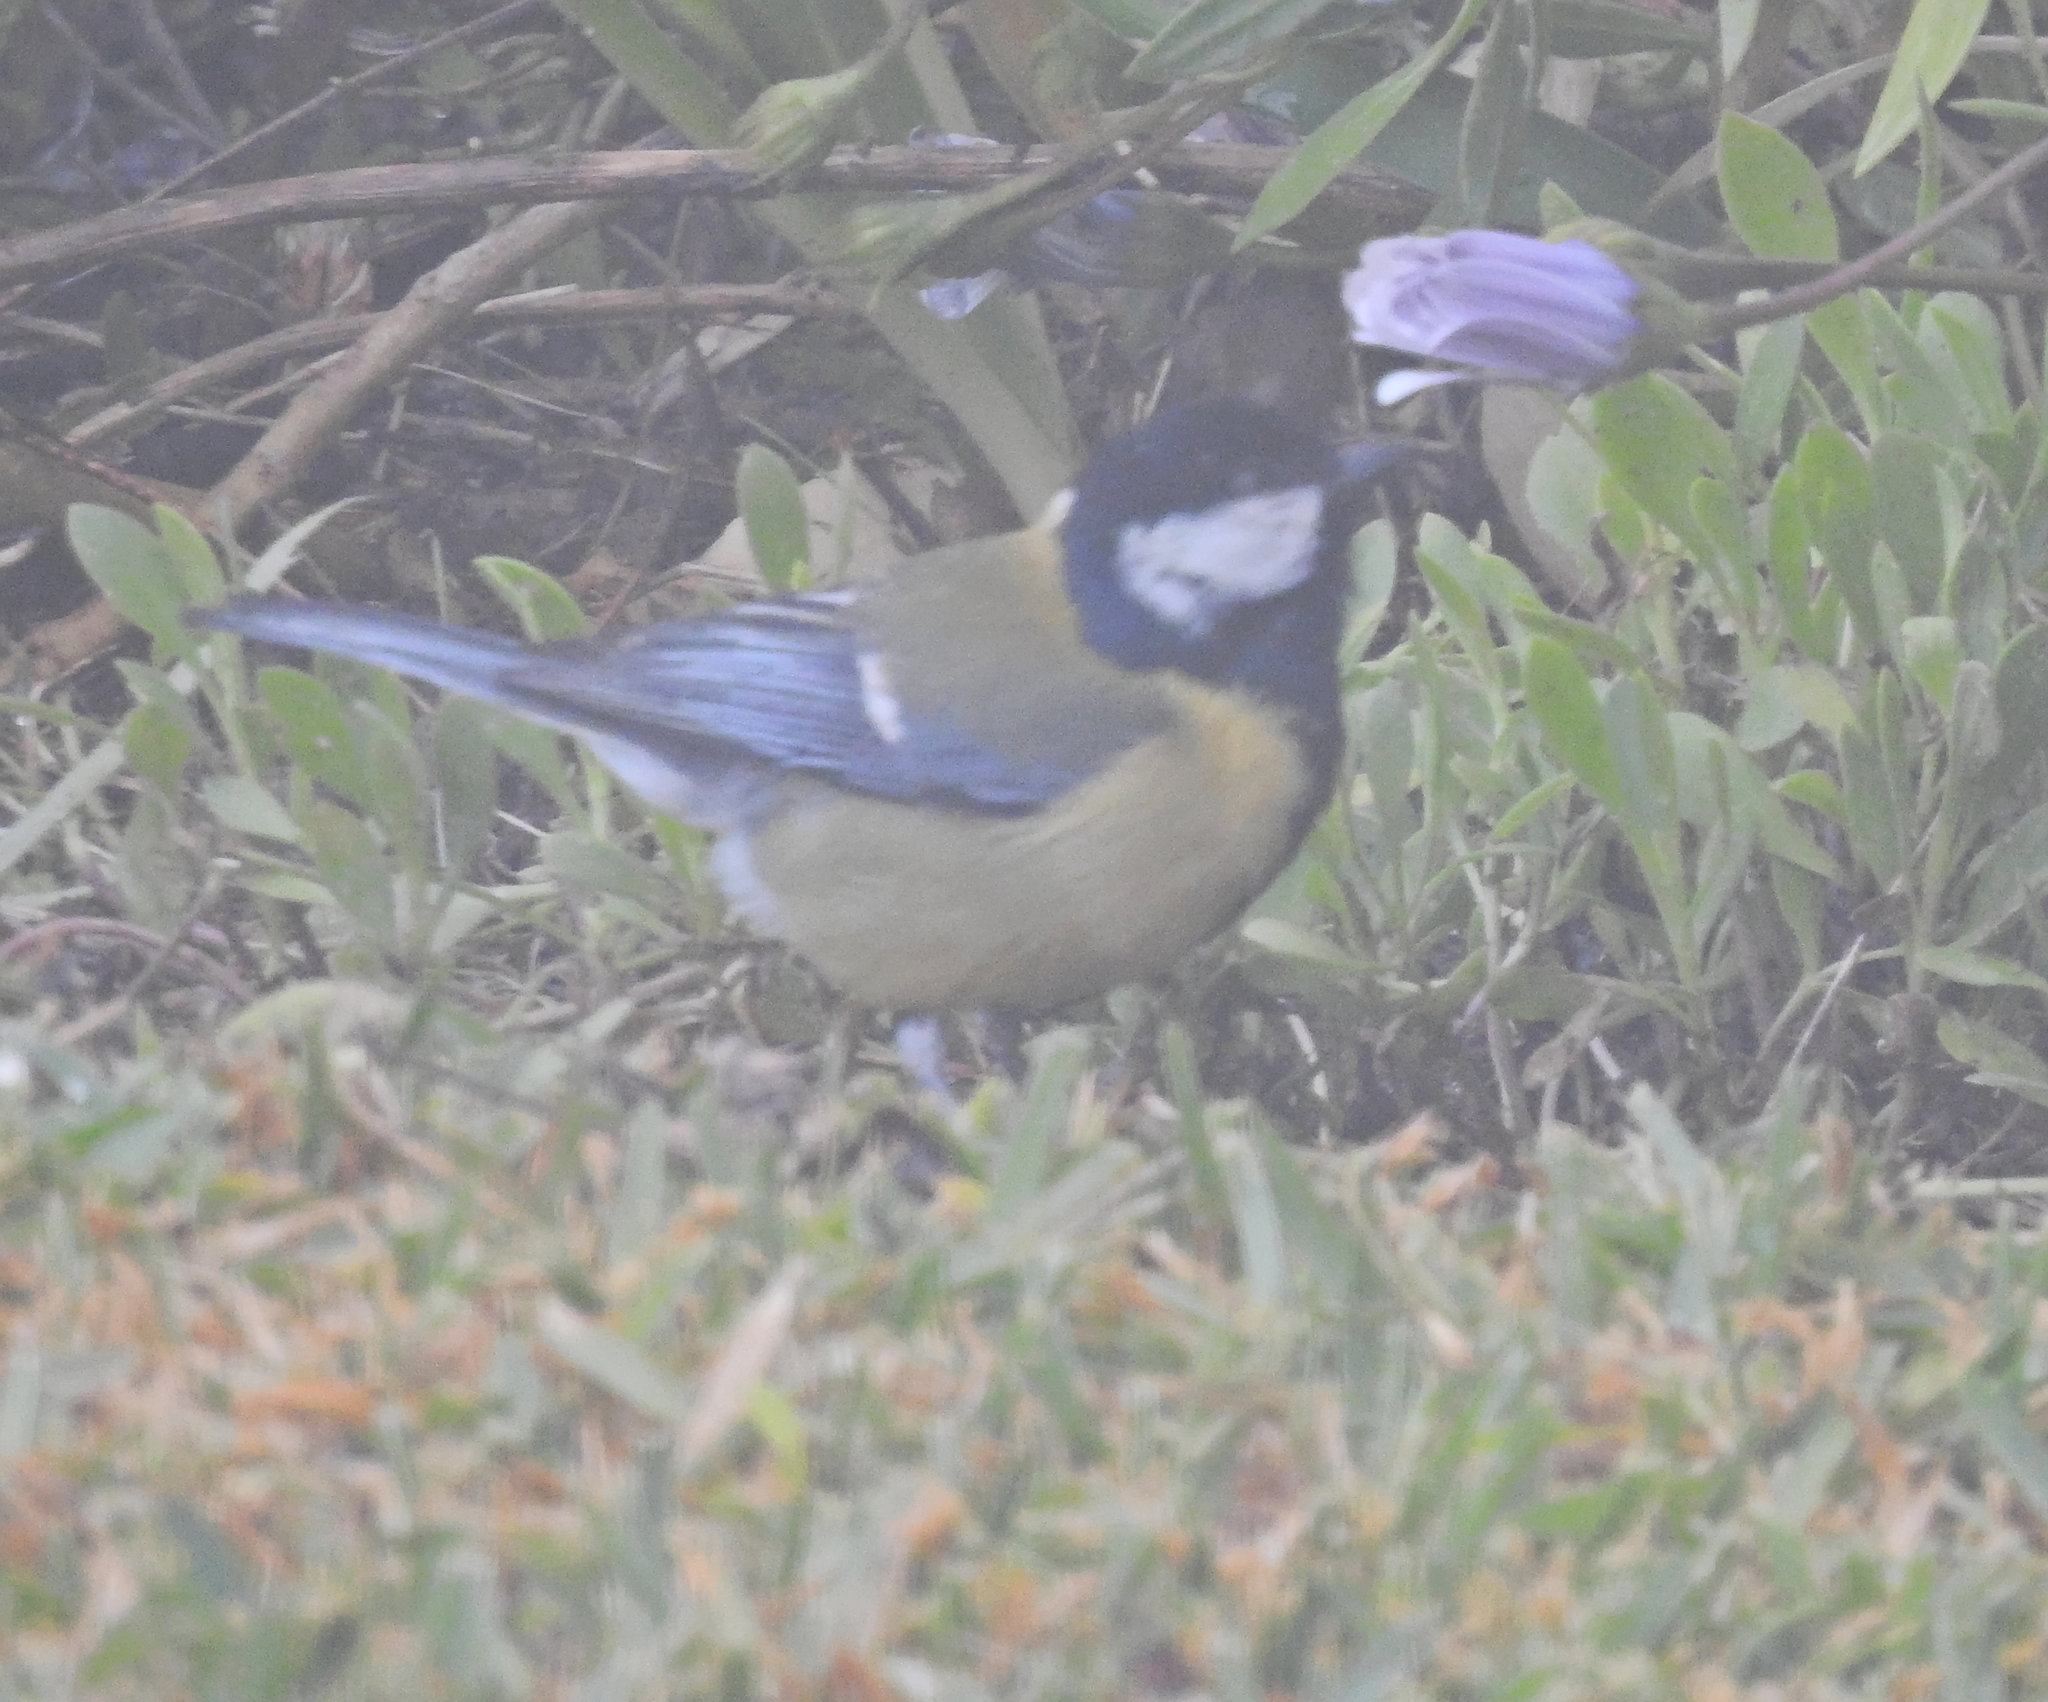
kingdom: Animalia
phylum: Chordata
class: Aves
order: Passeriformes
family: Paridae
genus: Parus
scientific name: Parus major
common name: Great tit
